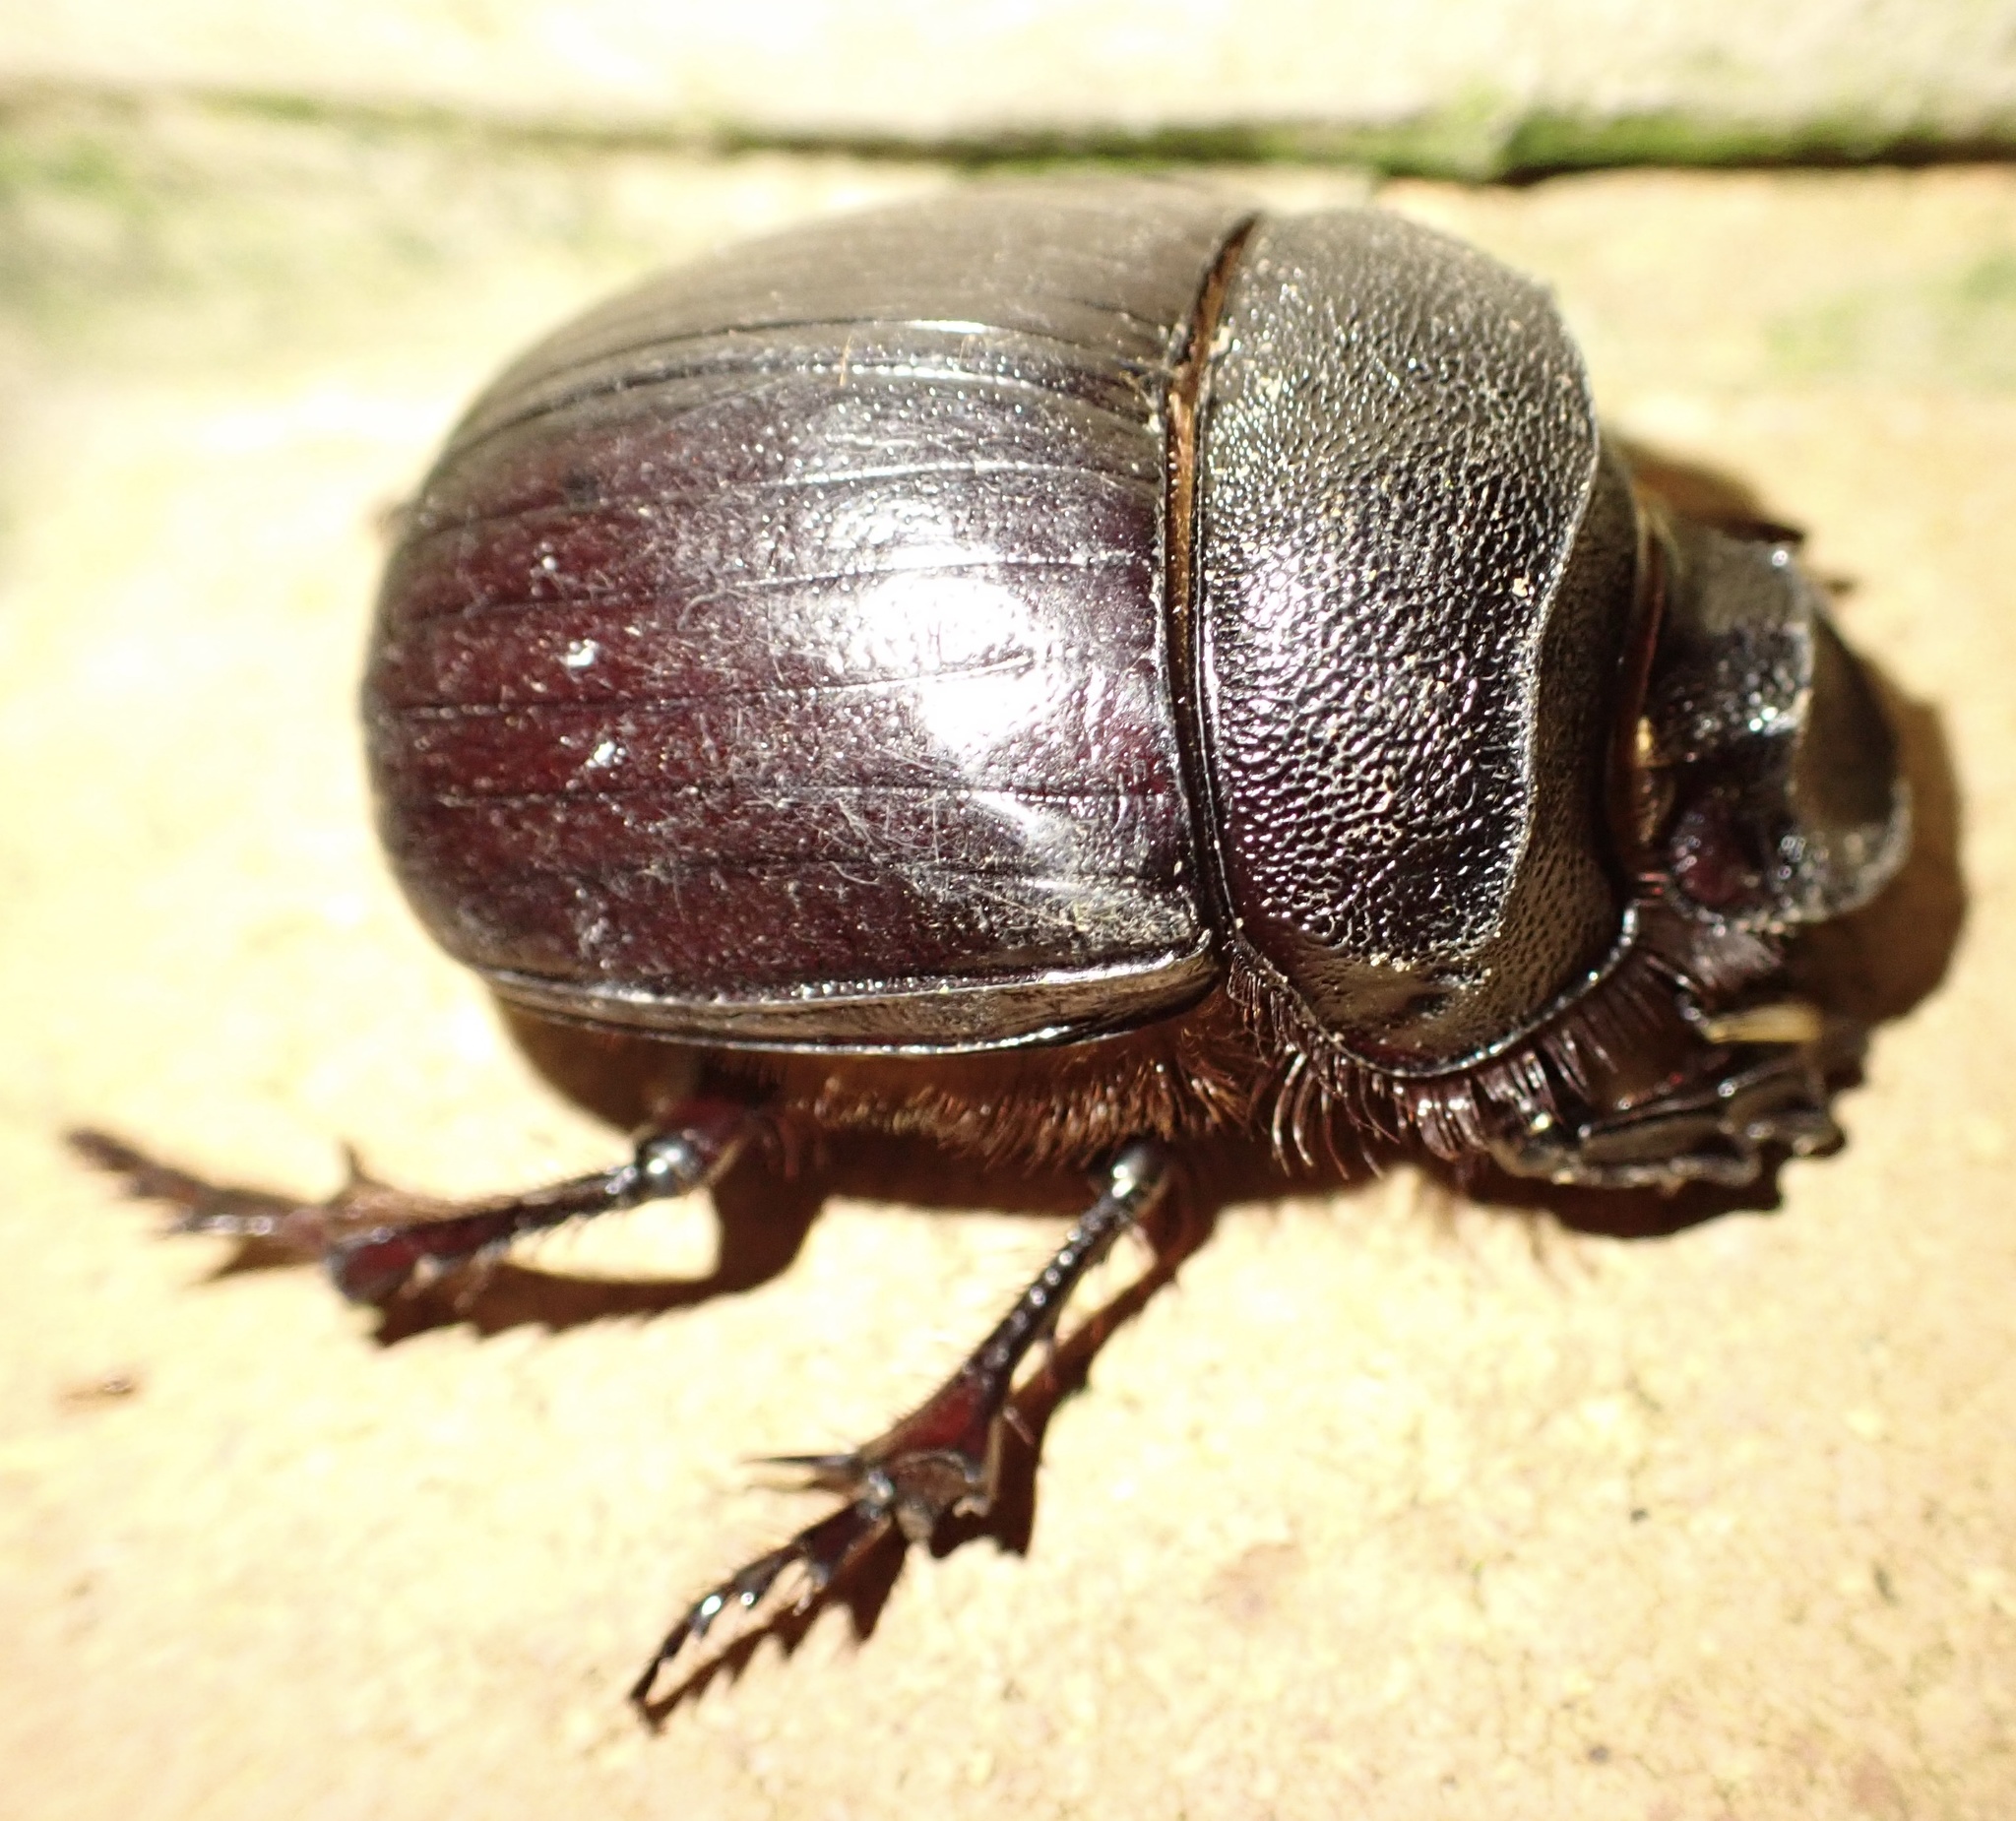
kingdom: Animalia
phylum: Arthropoda
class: Insecta
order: Coleoptera
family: Scarabaeidae
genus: Heliocopris
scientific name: Heliocopris hamadryas
